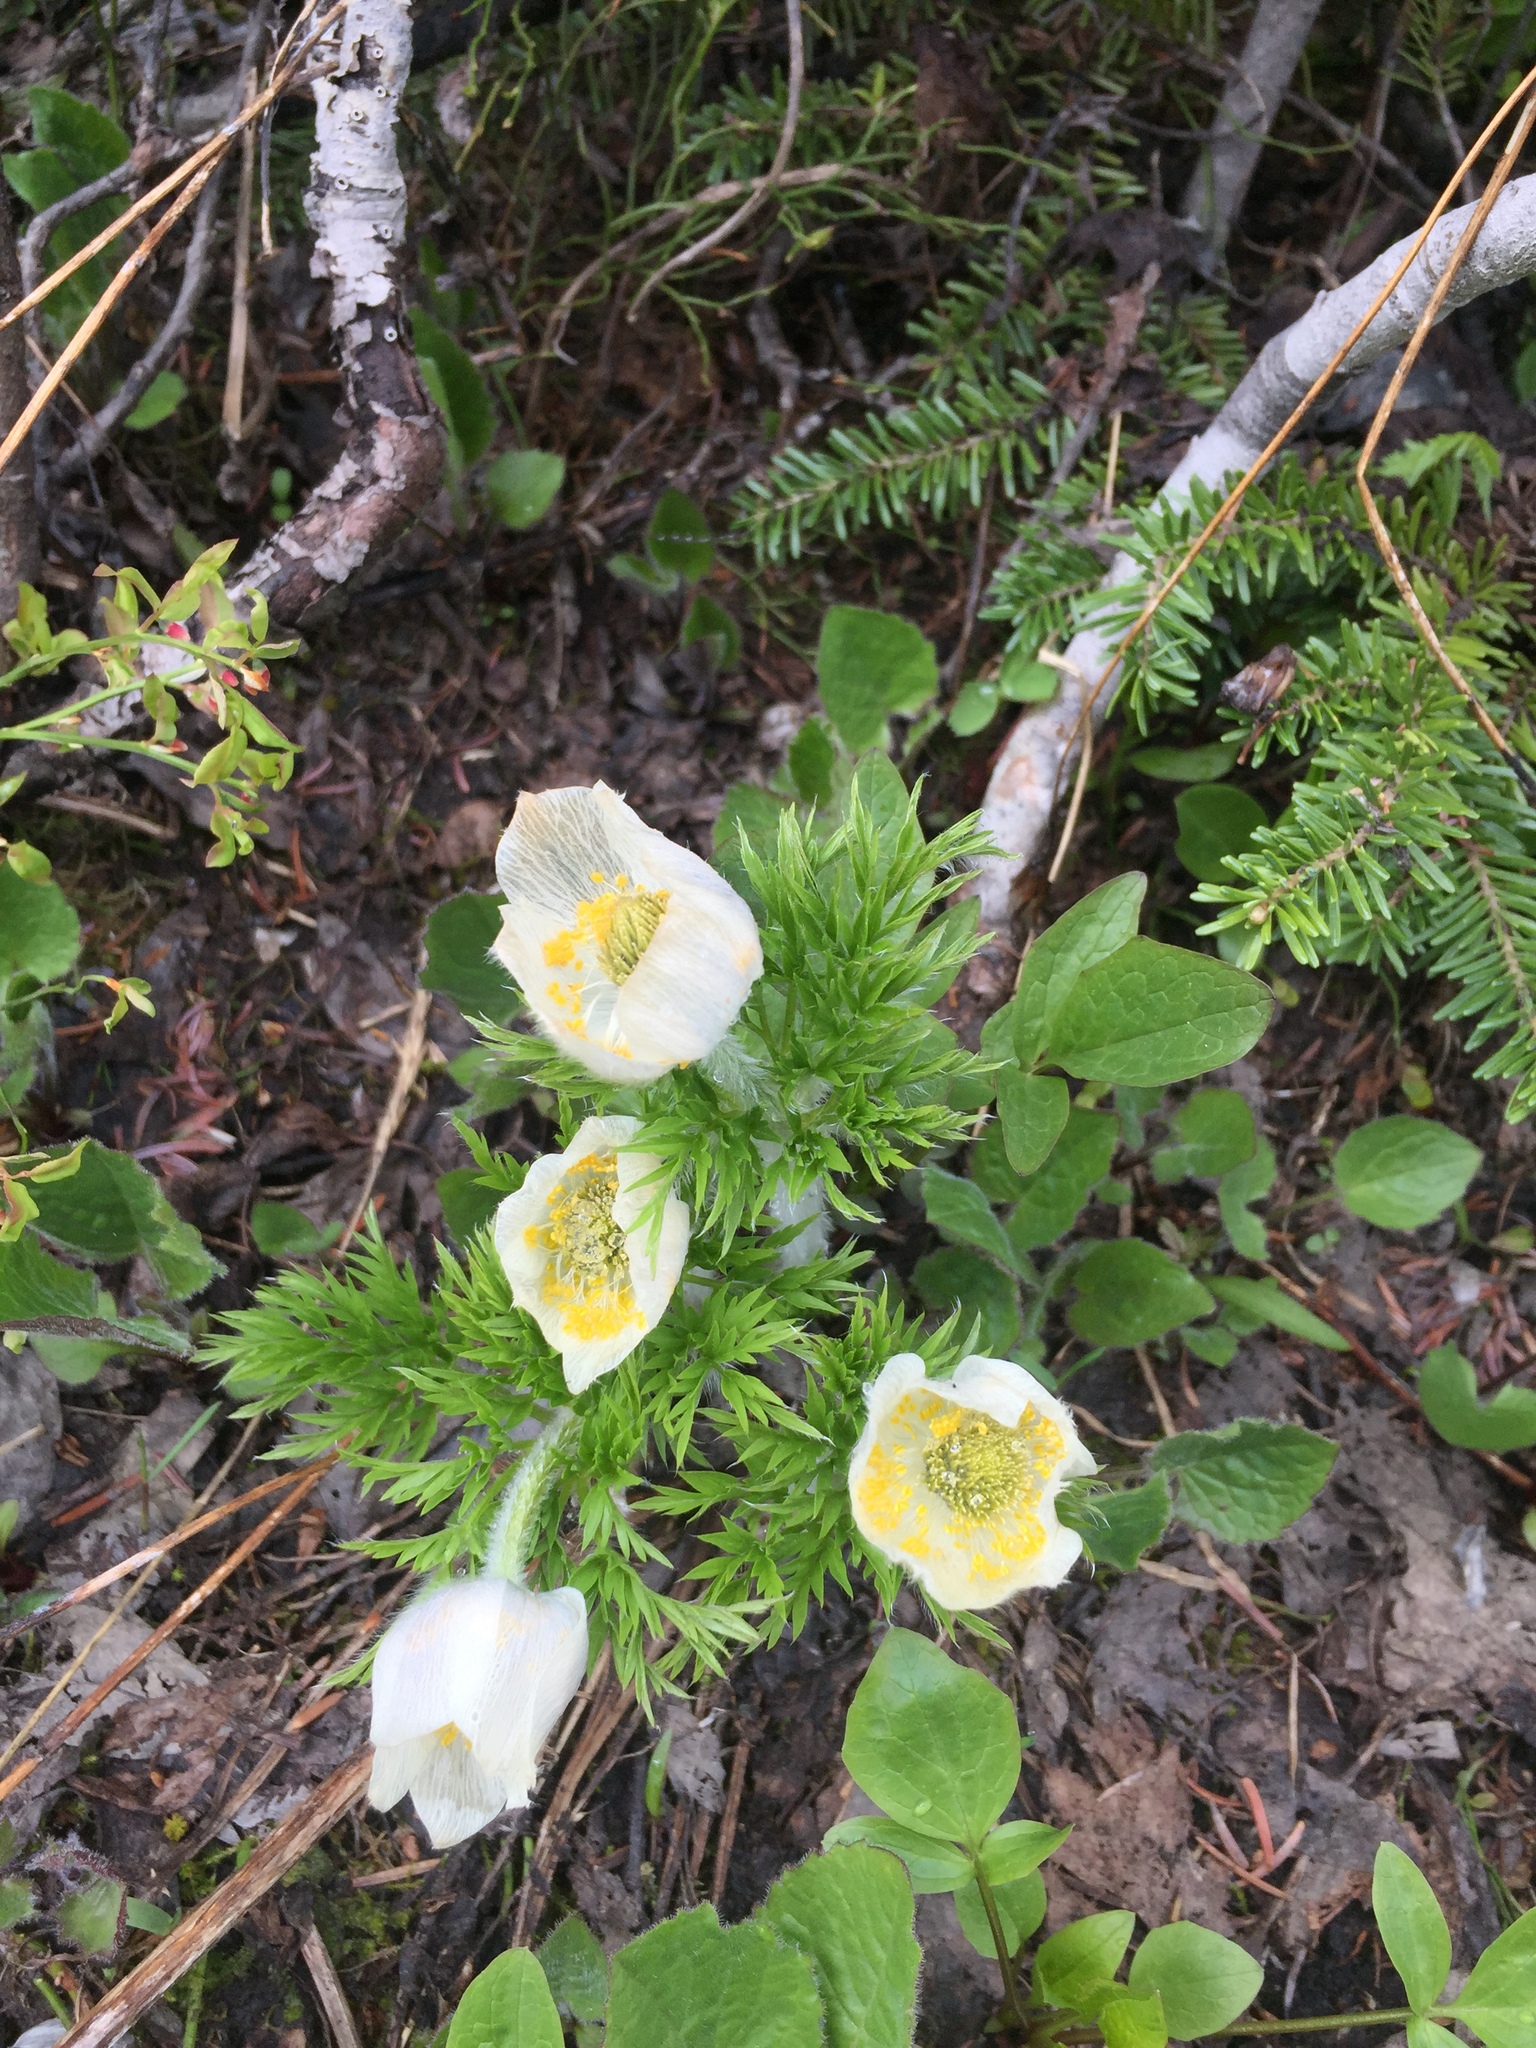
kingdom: Plantae
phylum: Tracheophyta
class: Magnoliopsida
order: Ranunculales
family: Ranunculaceae
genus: Pulsatilla
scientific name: Pulsatilla occidentalis
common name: Mountain pasqueflower
